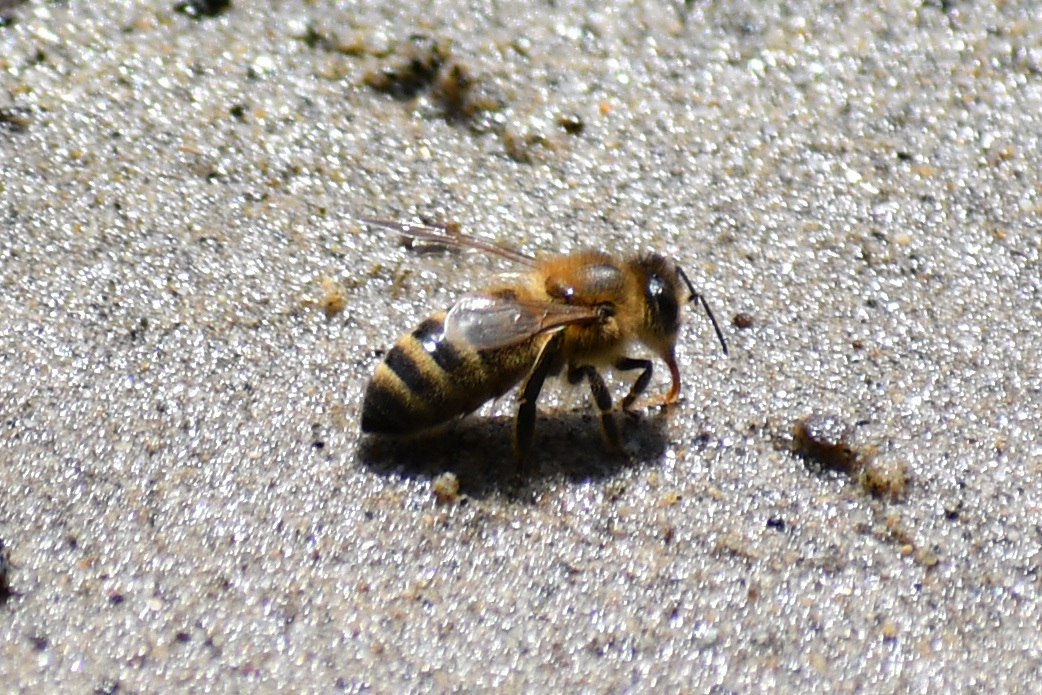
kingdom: Animalia
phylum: Arthropoda
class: Insecta
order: Hymenoptera
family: Apidae
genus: Apis
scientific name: Apis mellifera
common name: Honey bee
